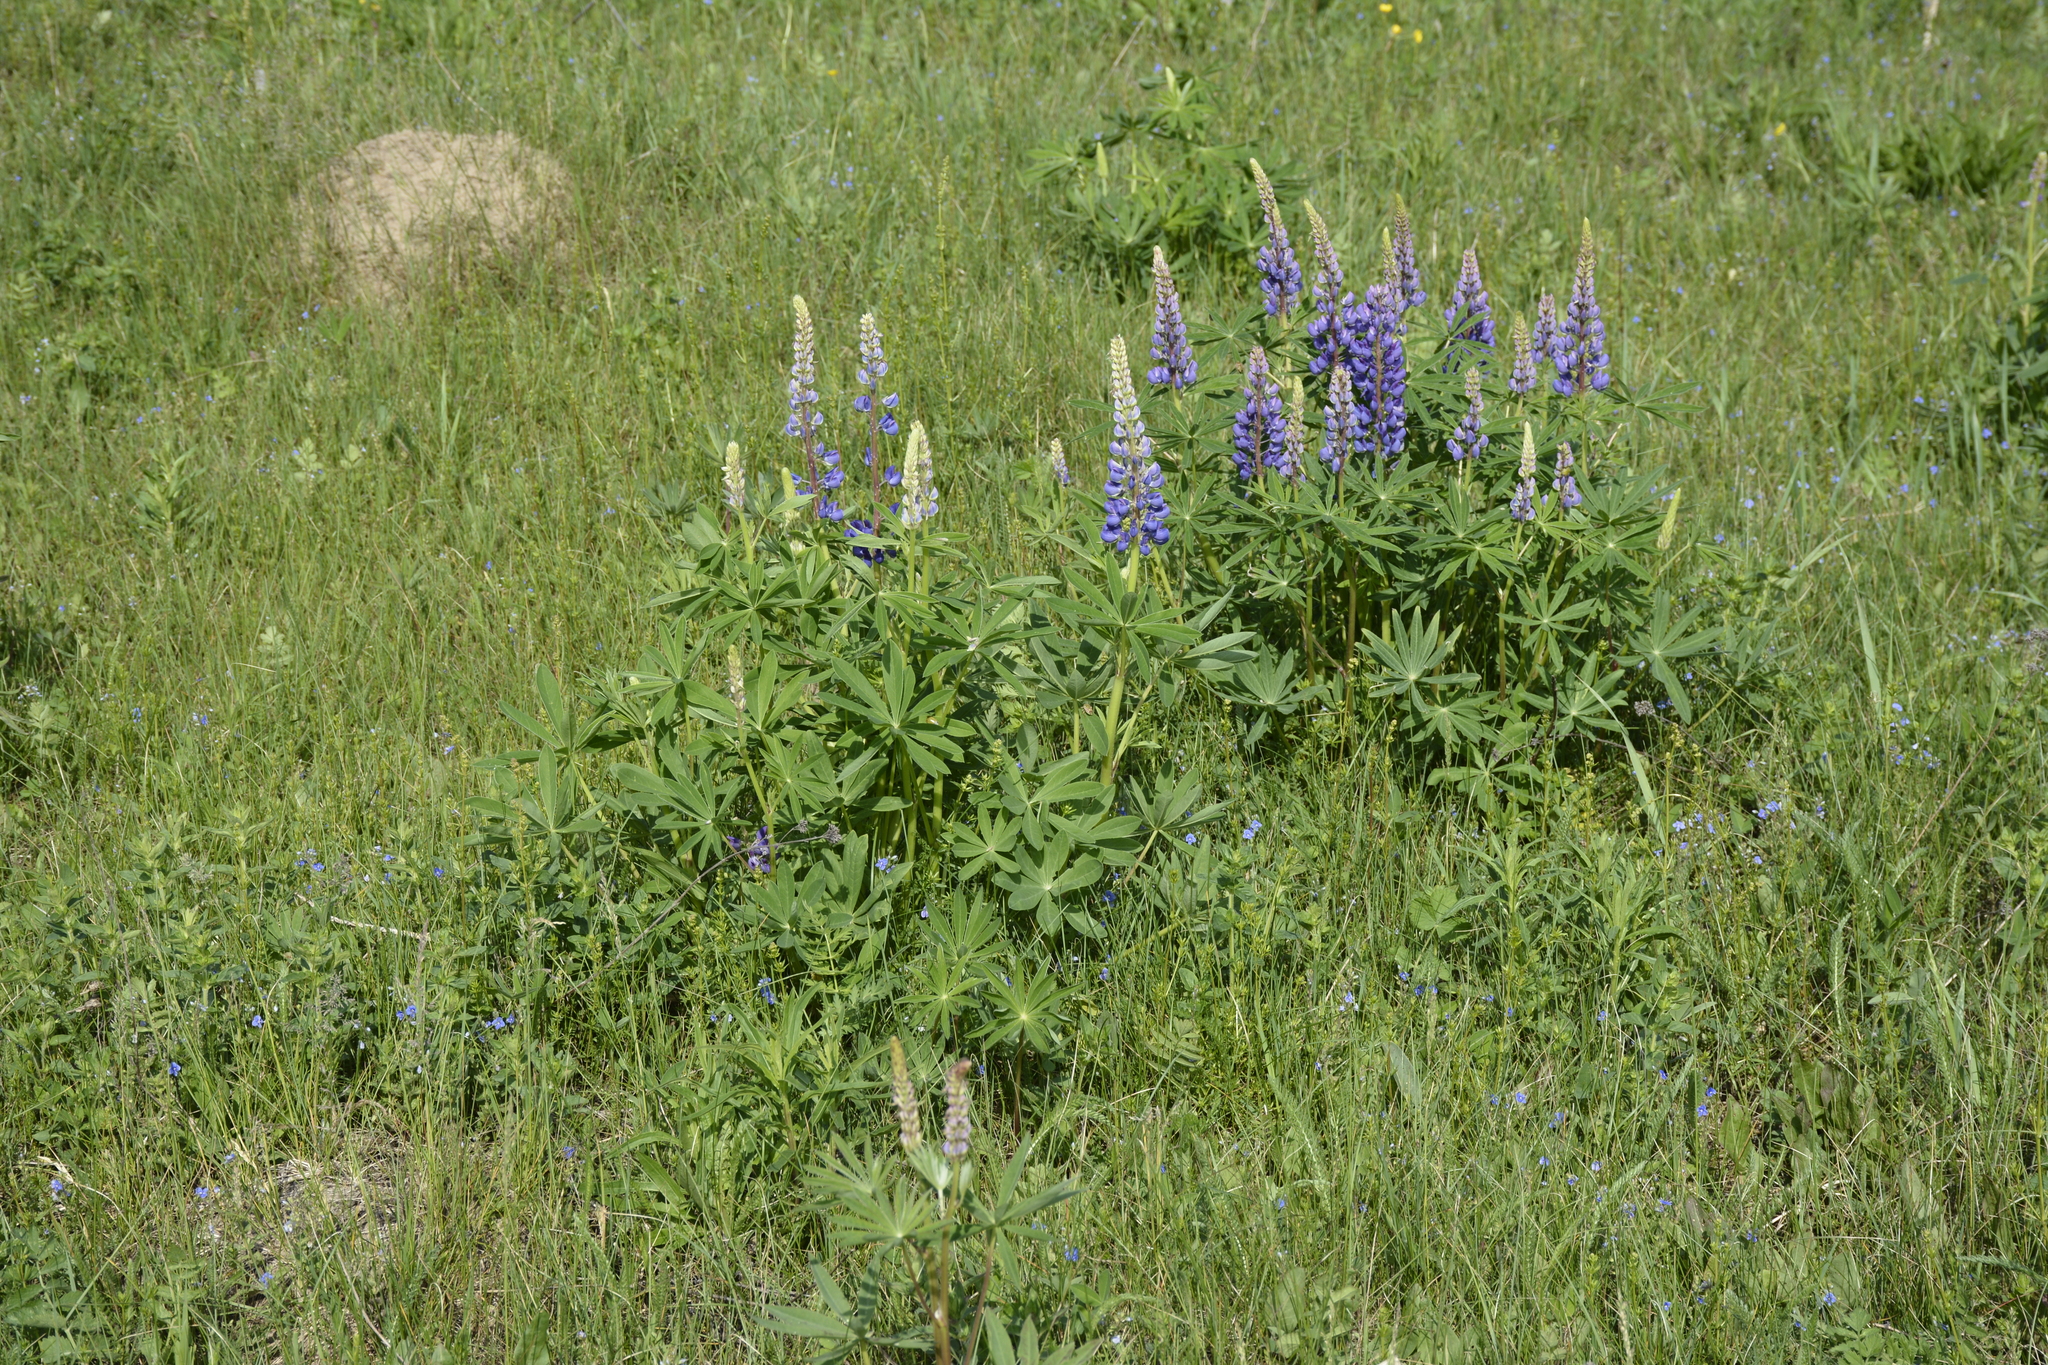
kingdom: Plantae
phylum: Tracheophyta
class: Magnoliopsida
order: Fabales
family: Fabaceae
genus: Lupinus
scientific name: Lupinus polyphyllus
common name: Garden lupin
